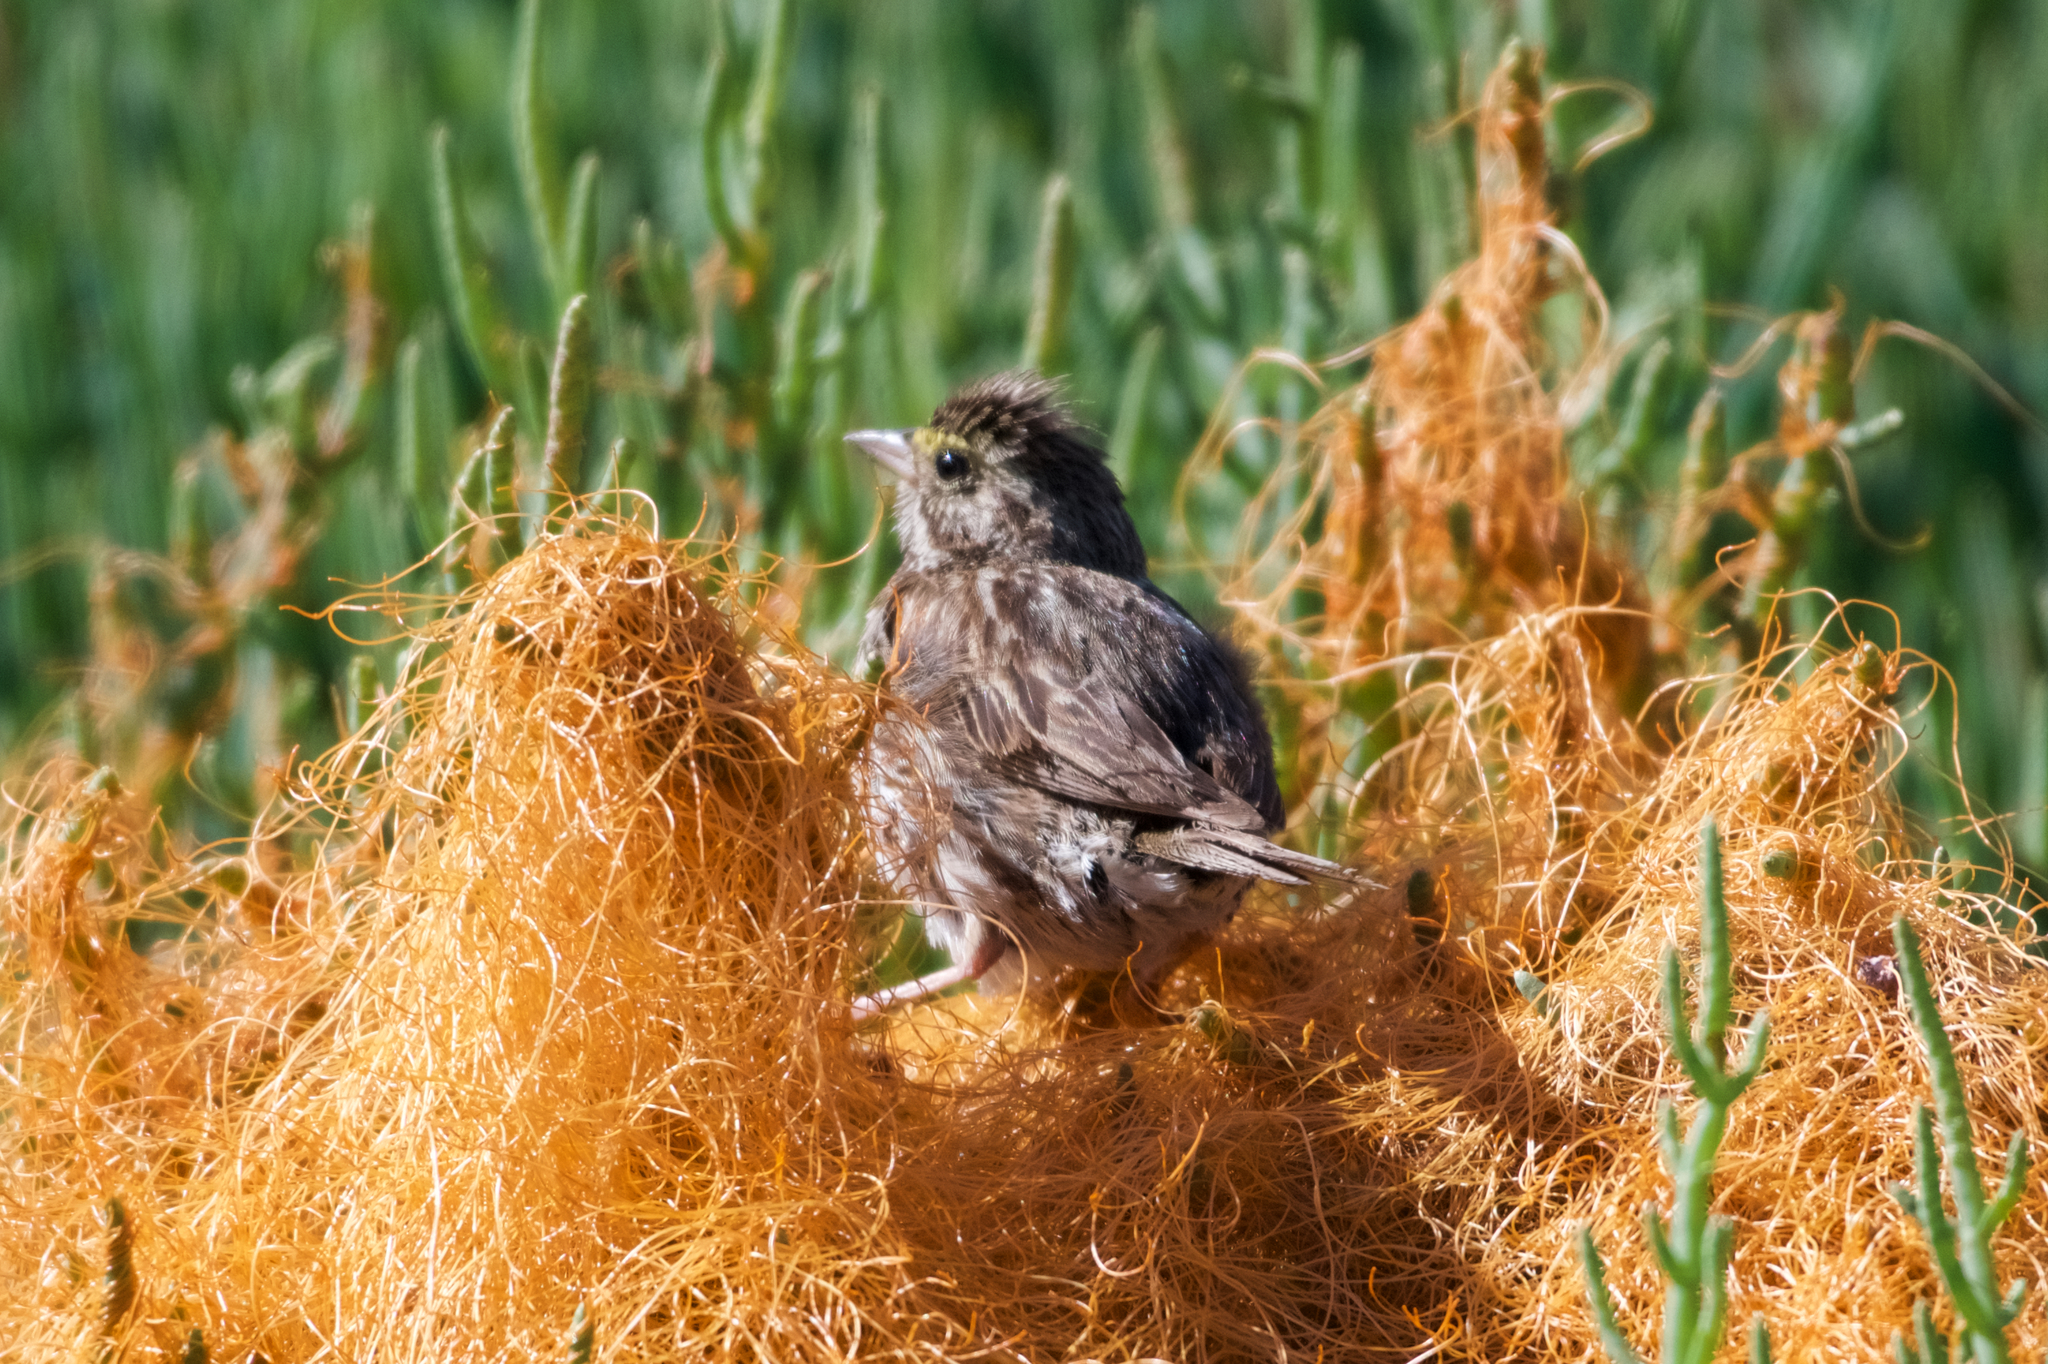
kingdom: Animalia
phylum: Chordata
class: Aves
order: Passeriformes
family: Passerellidae
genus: Passerculus
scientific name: Passerculus sandwichensis
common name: Savannah sparrow
